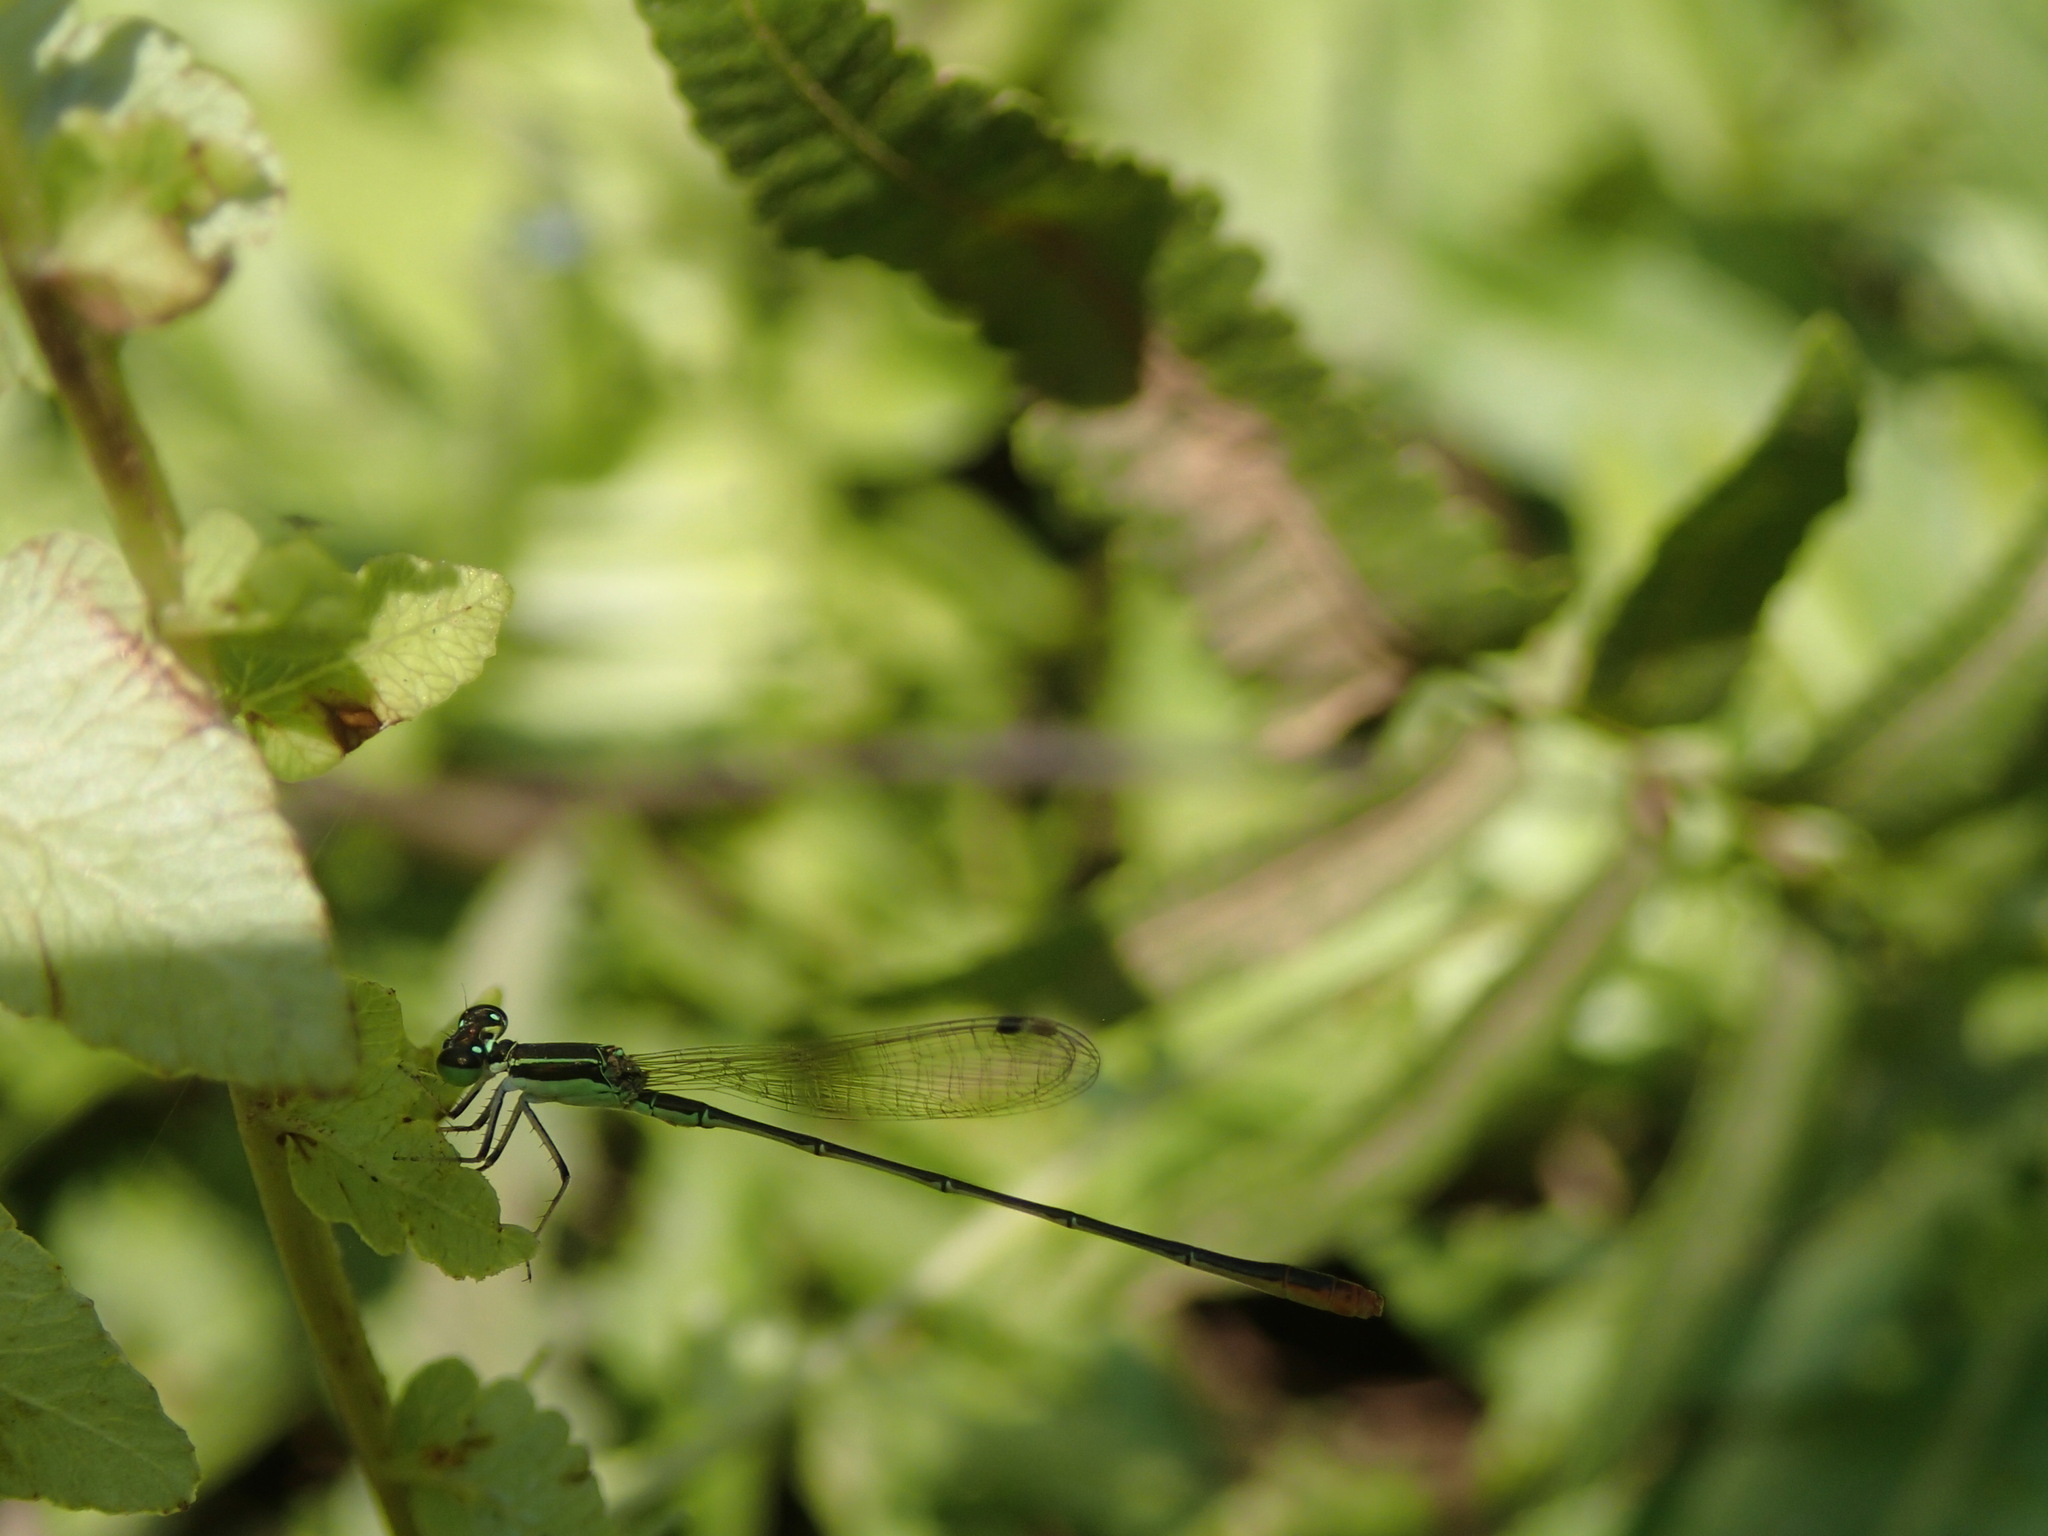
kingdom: Animalia
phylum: Arthropoda
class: Insecta
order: Odonata
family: Coenagrionidae
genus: Agriocnemis
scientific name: Agriocnemis pygmaea
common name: Pygmy wisp
